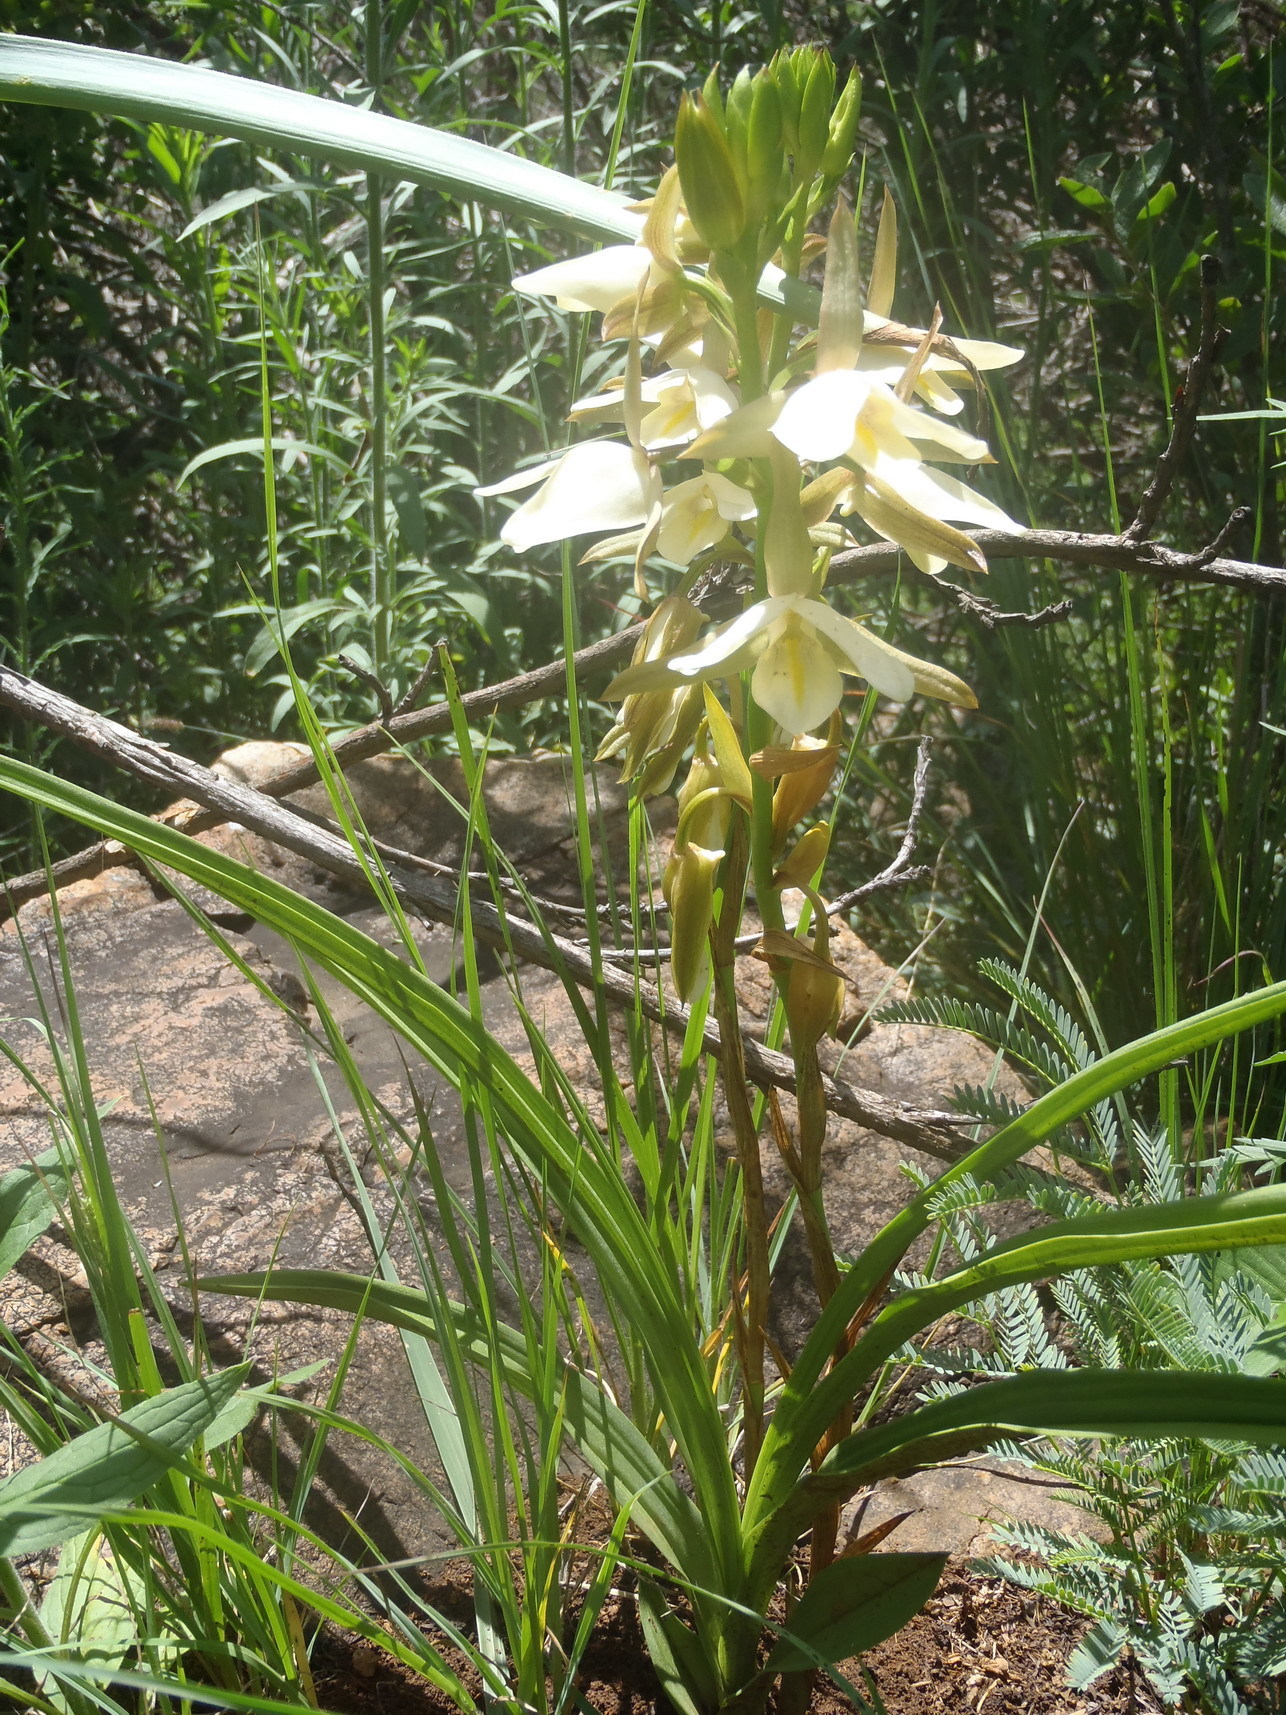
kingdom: Plantae
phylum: Tracheophyta
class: Liliopsida
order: Asparagales
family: Orchidaceae
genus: Eulophia
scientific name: Eulophia ovalis
